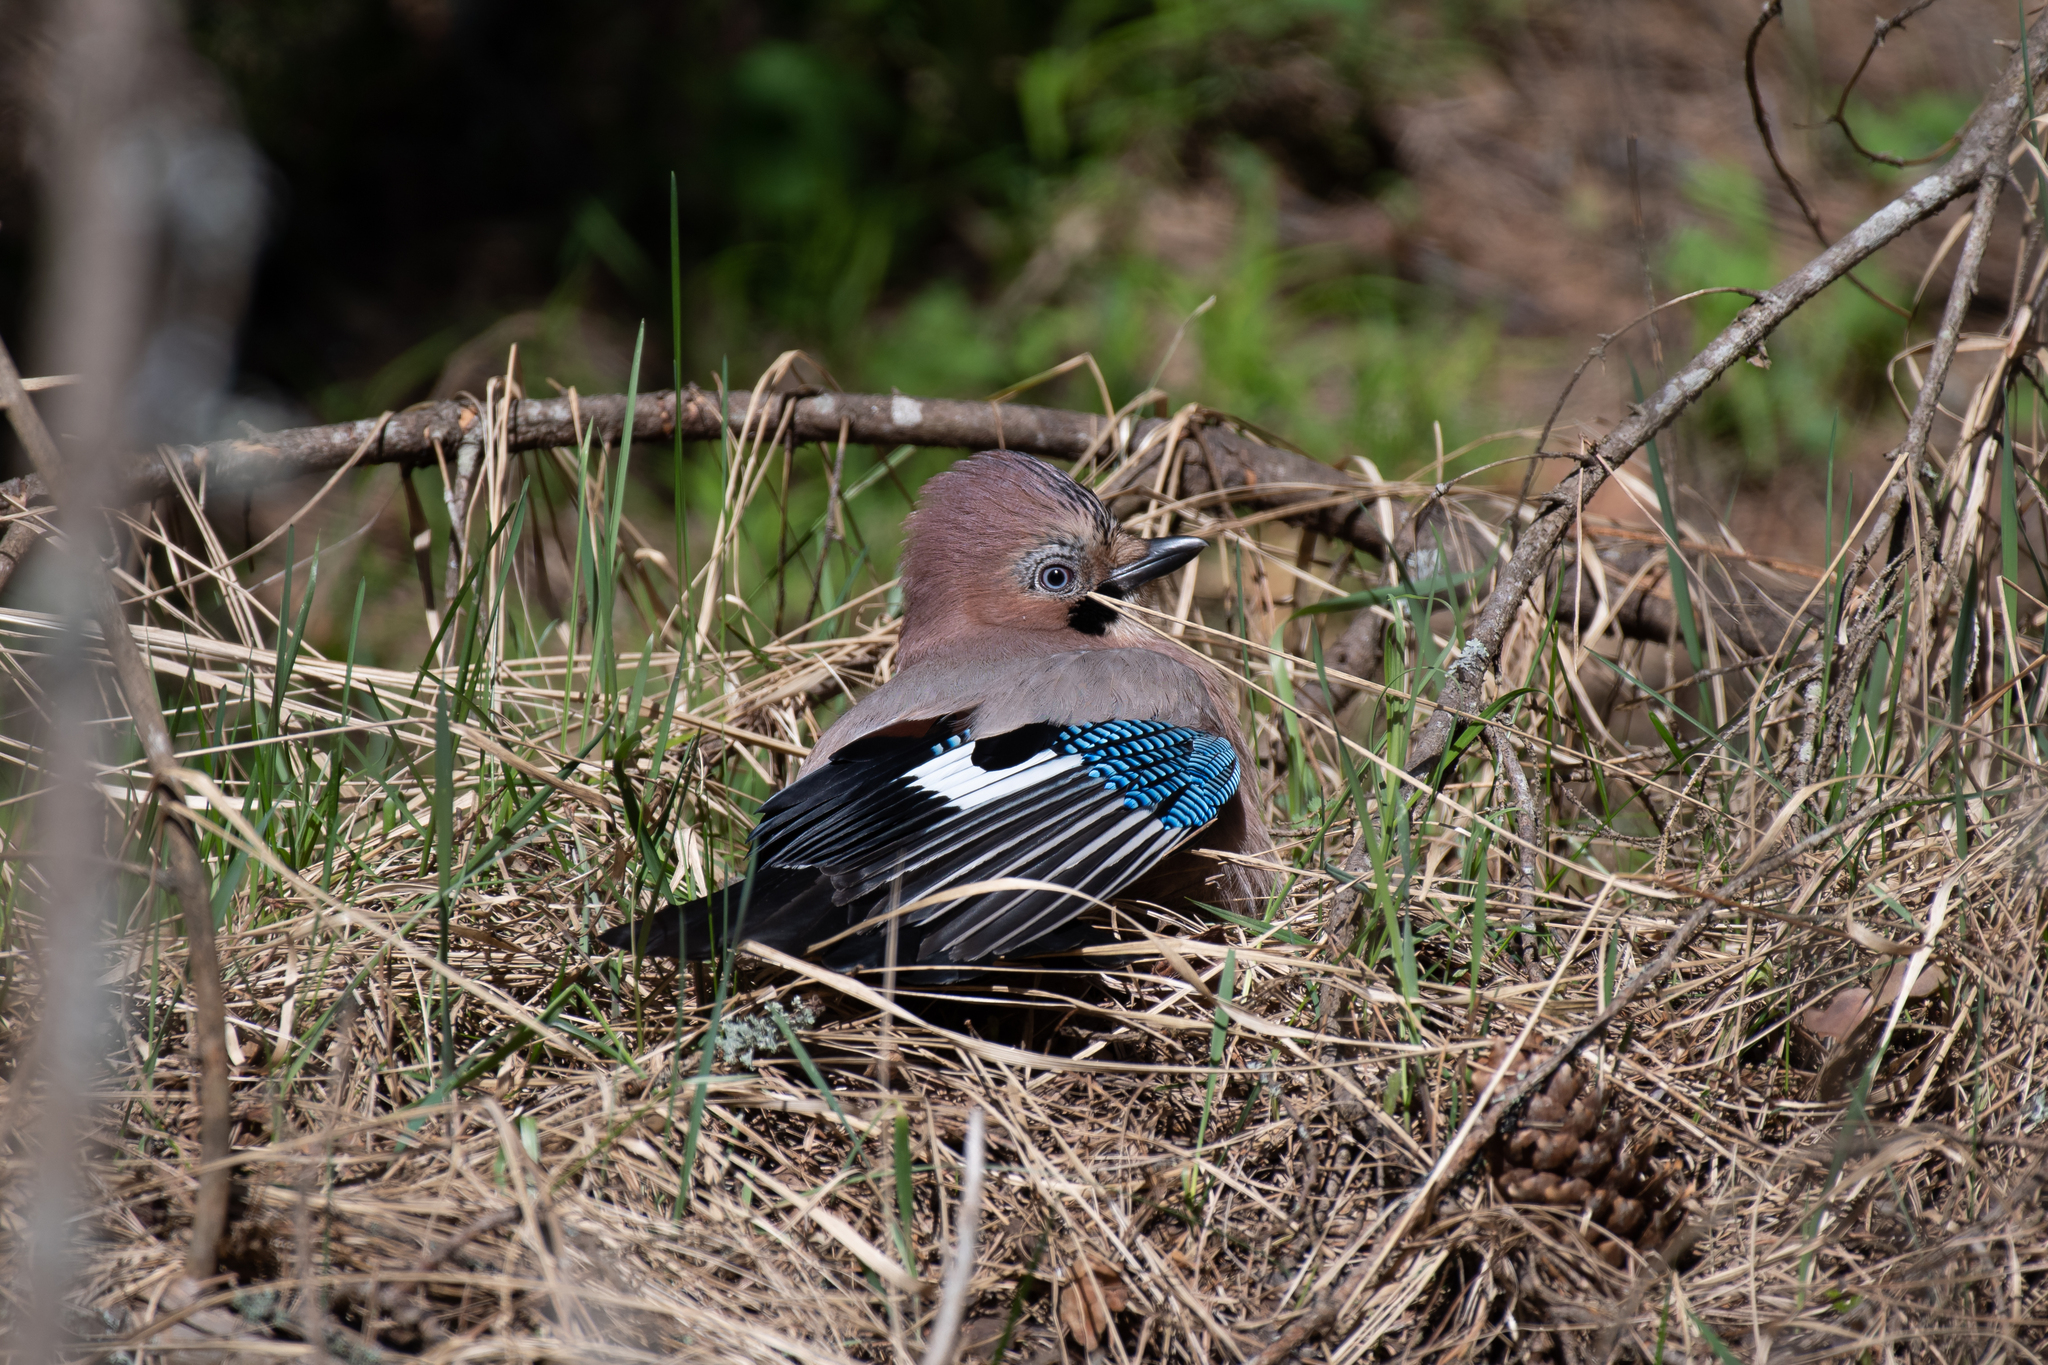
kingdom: Animalia
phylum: Chordata
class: Aves
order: Passeriformes
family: Corvidae
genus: Garrulus
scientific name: Garrulus glandarius
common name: Eurasian jay
